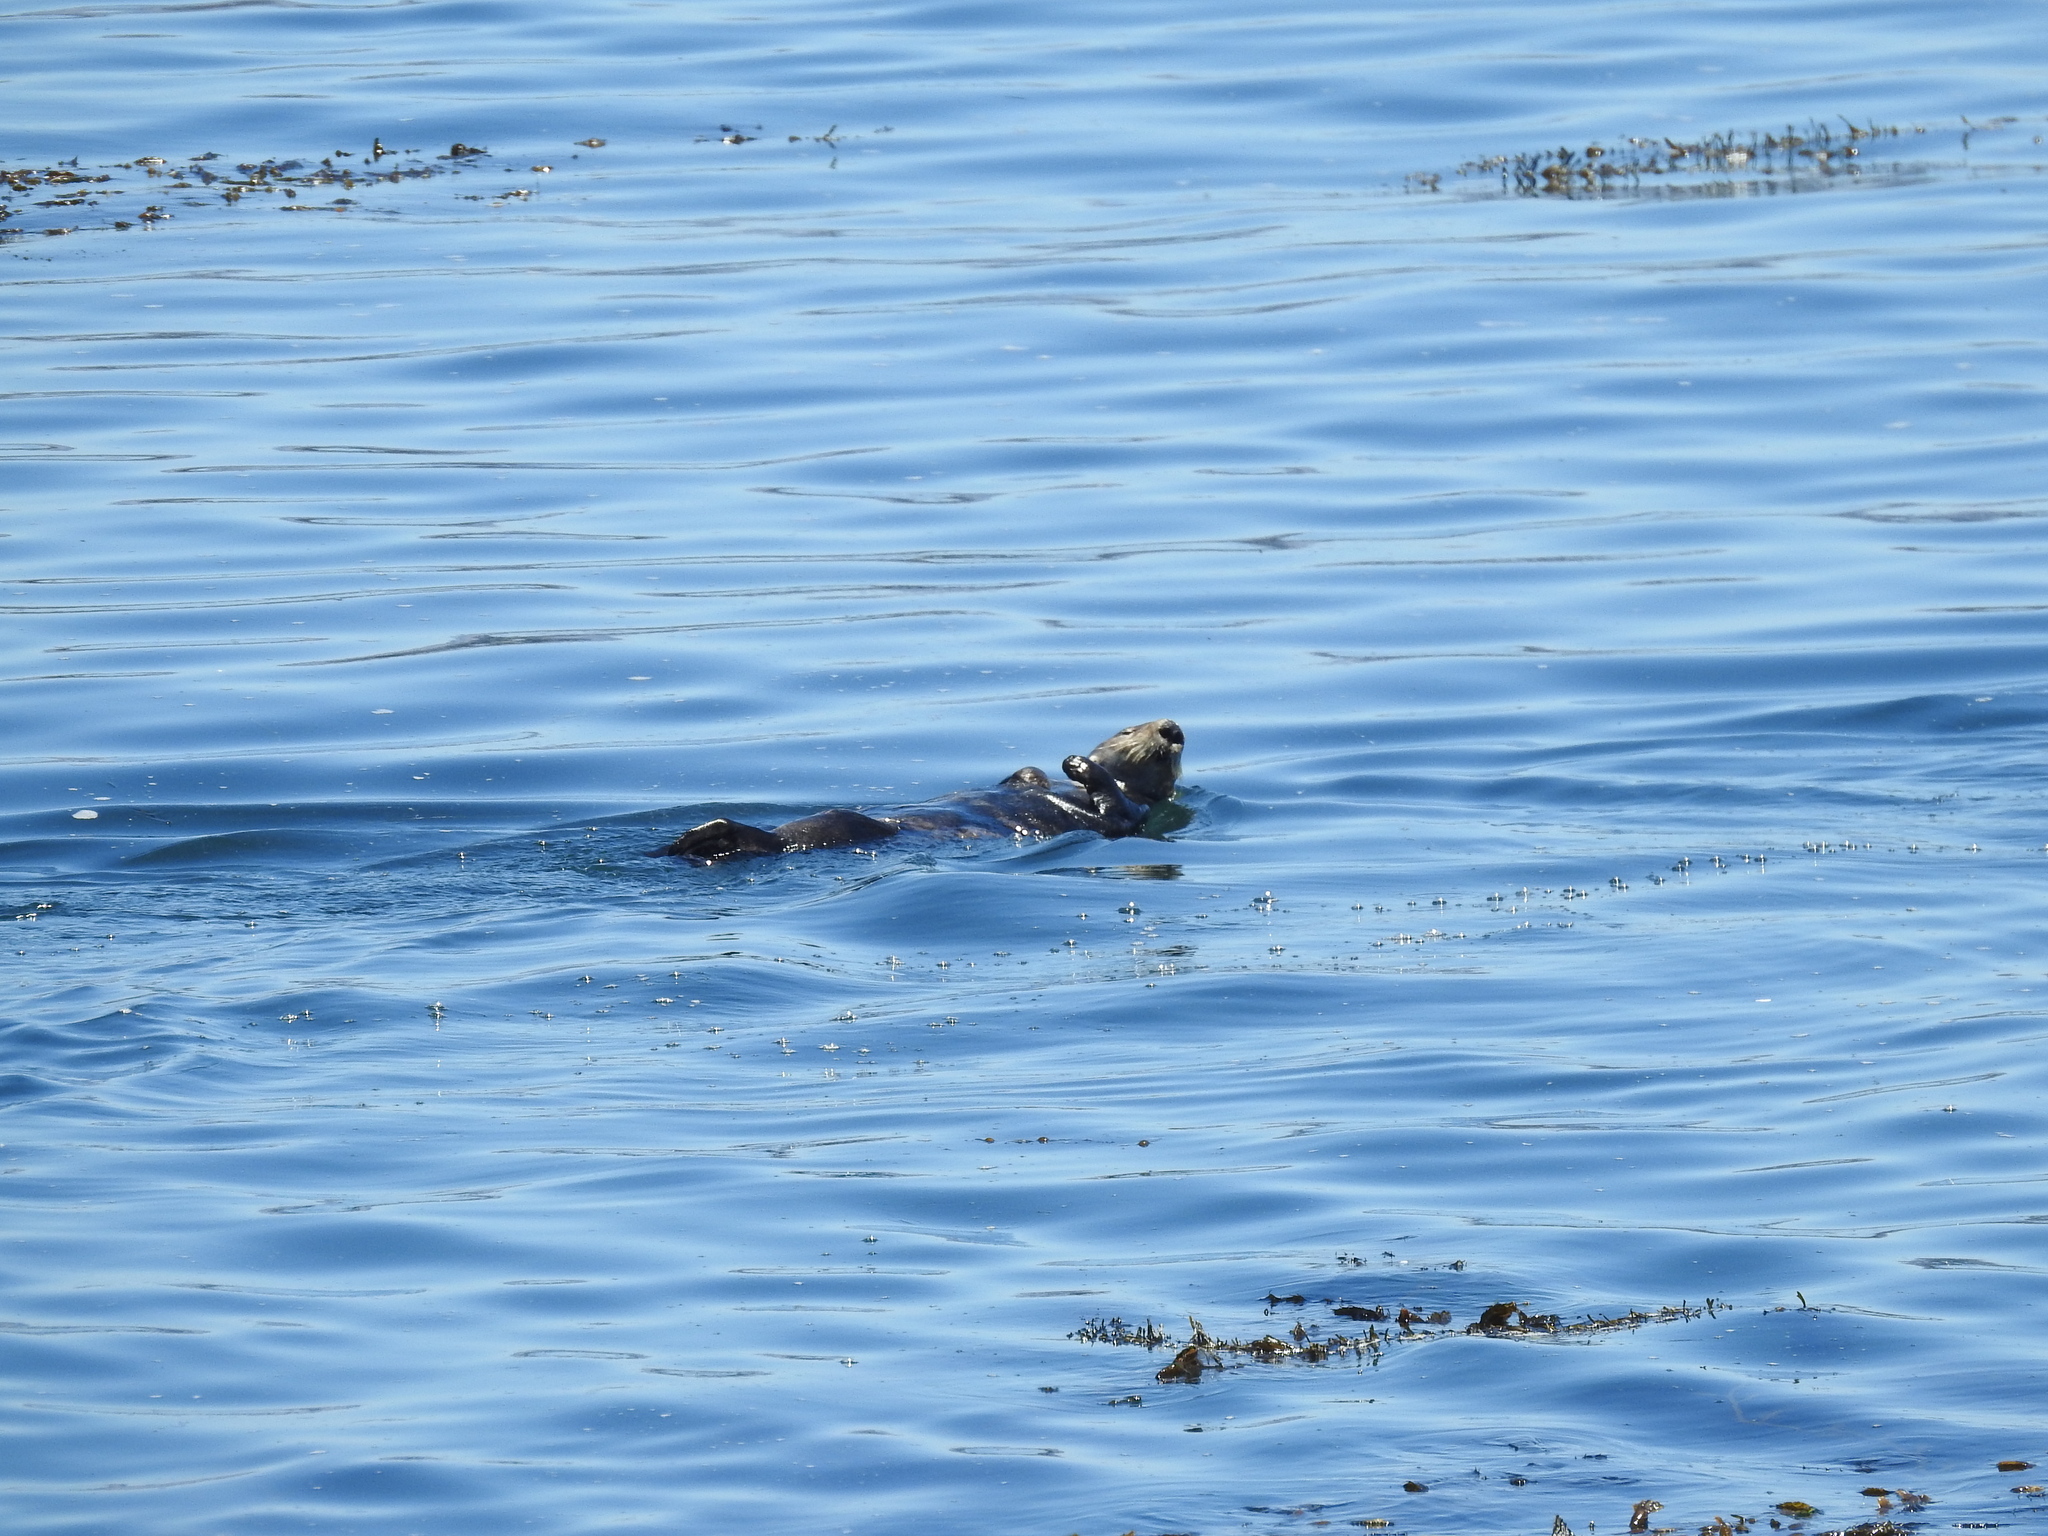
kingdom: Animalia
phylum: Chordata
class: Mammalia
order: Carnivora
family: Mustelidae
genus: Enhydra
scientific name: Enhydra lutris
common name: Sea otter
